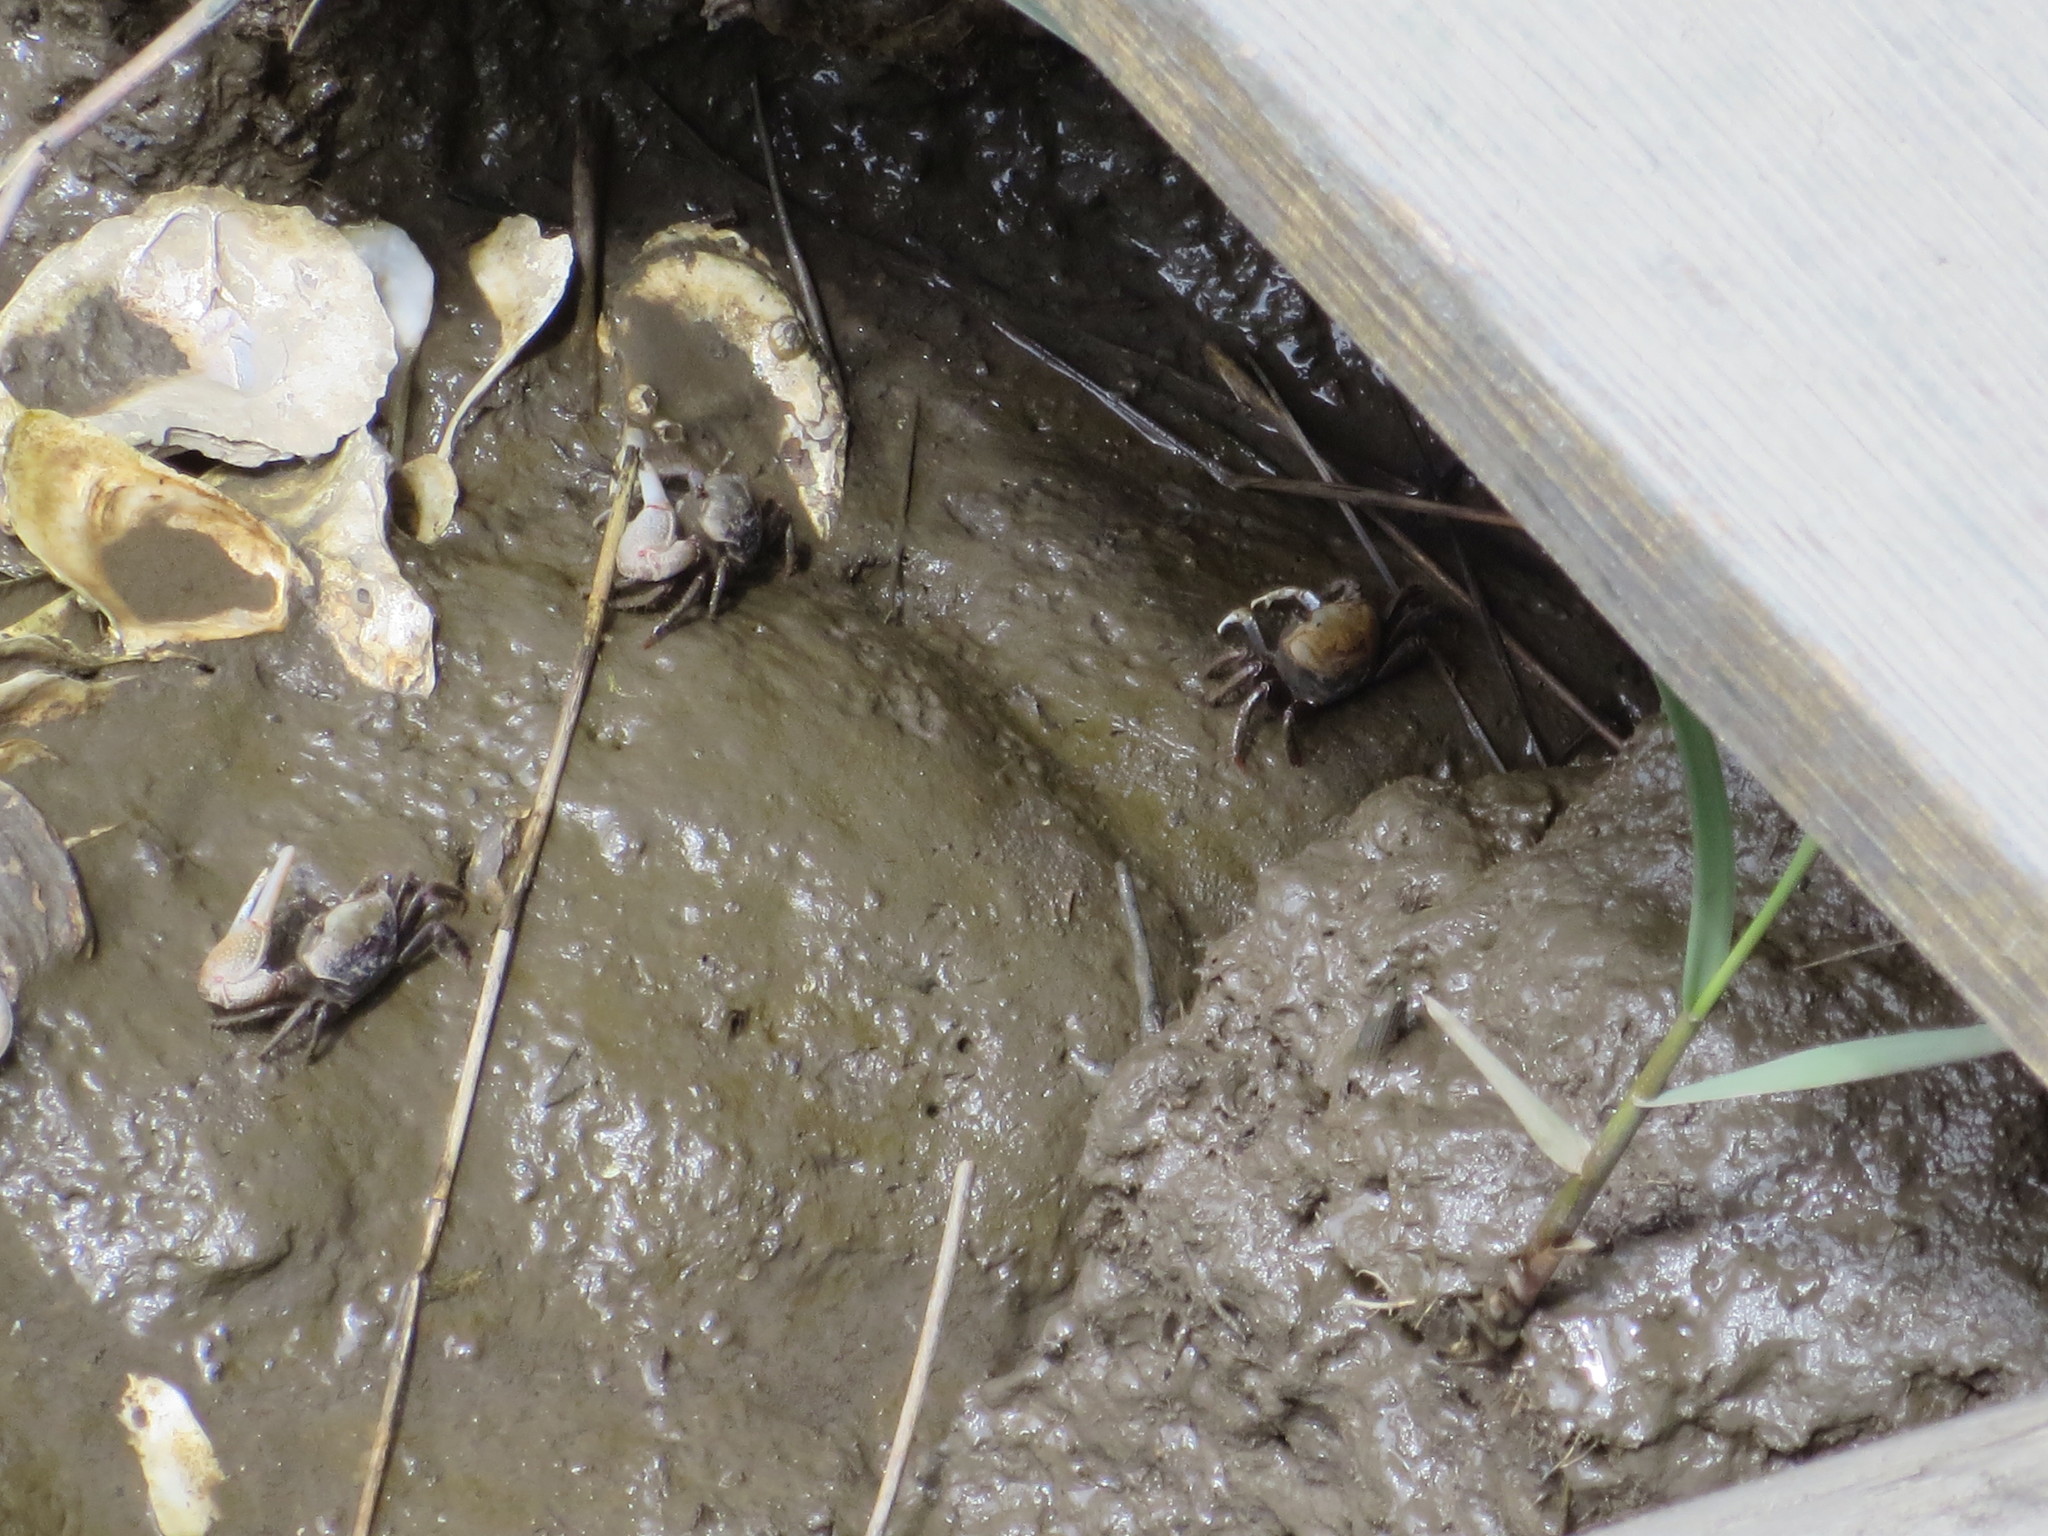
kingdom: Animalia
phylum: Arthropoda
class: Malacostraca
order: Decapoda
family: Ocypodidae
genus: Minuca
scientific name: Minuca minax
